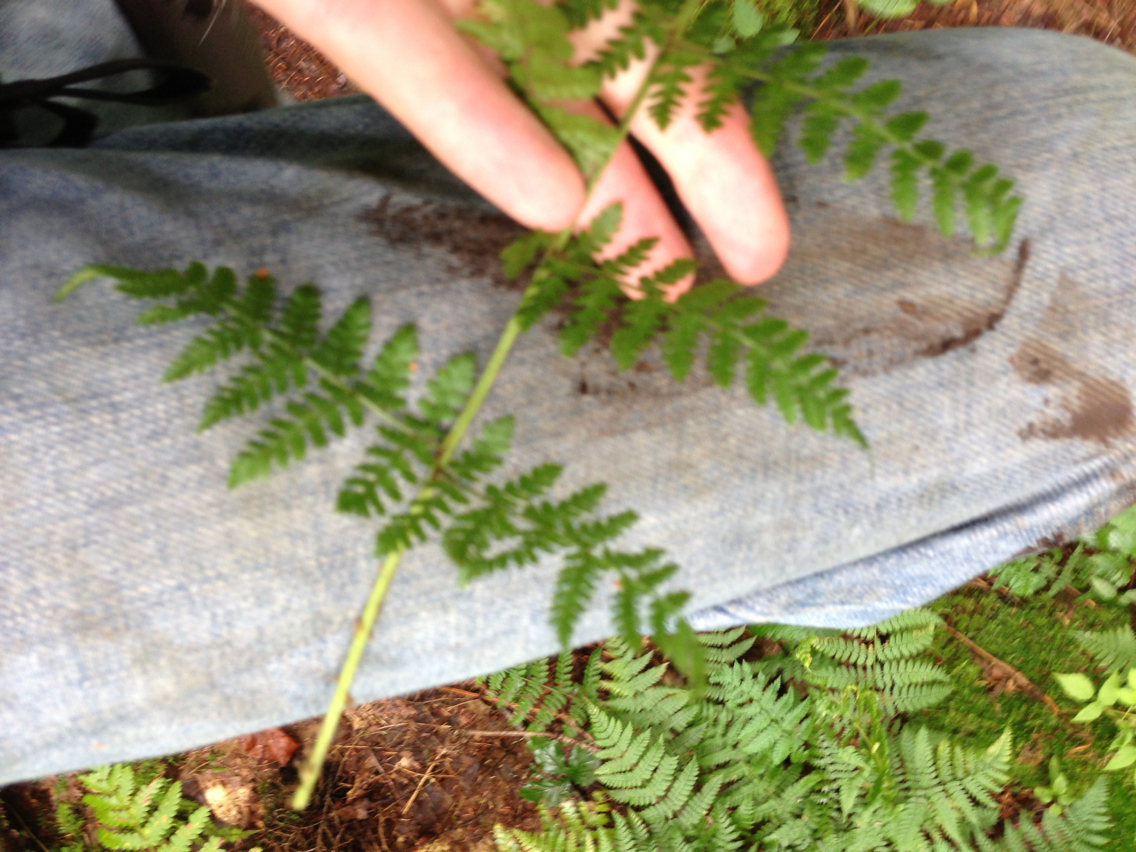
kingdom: Plantae
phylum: Tracheophyta
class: Polypodiopsida
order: Polypodiales
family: Dryopteridaceae
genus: Dryopteris
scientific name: Dryopteris intermedia
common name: Evergreen wood fern
